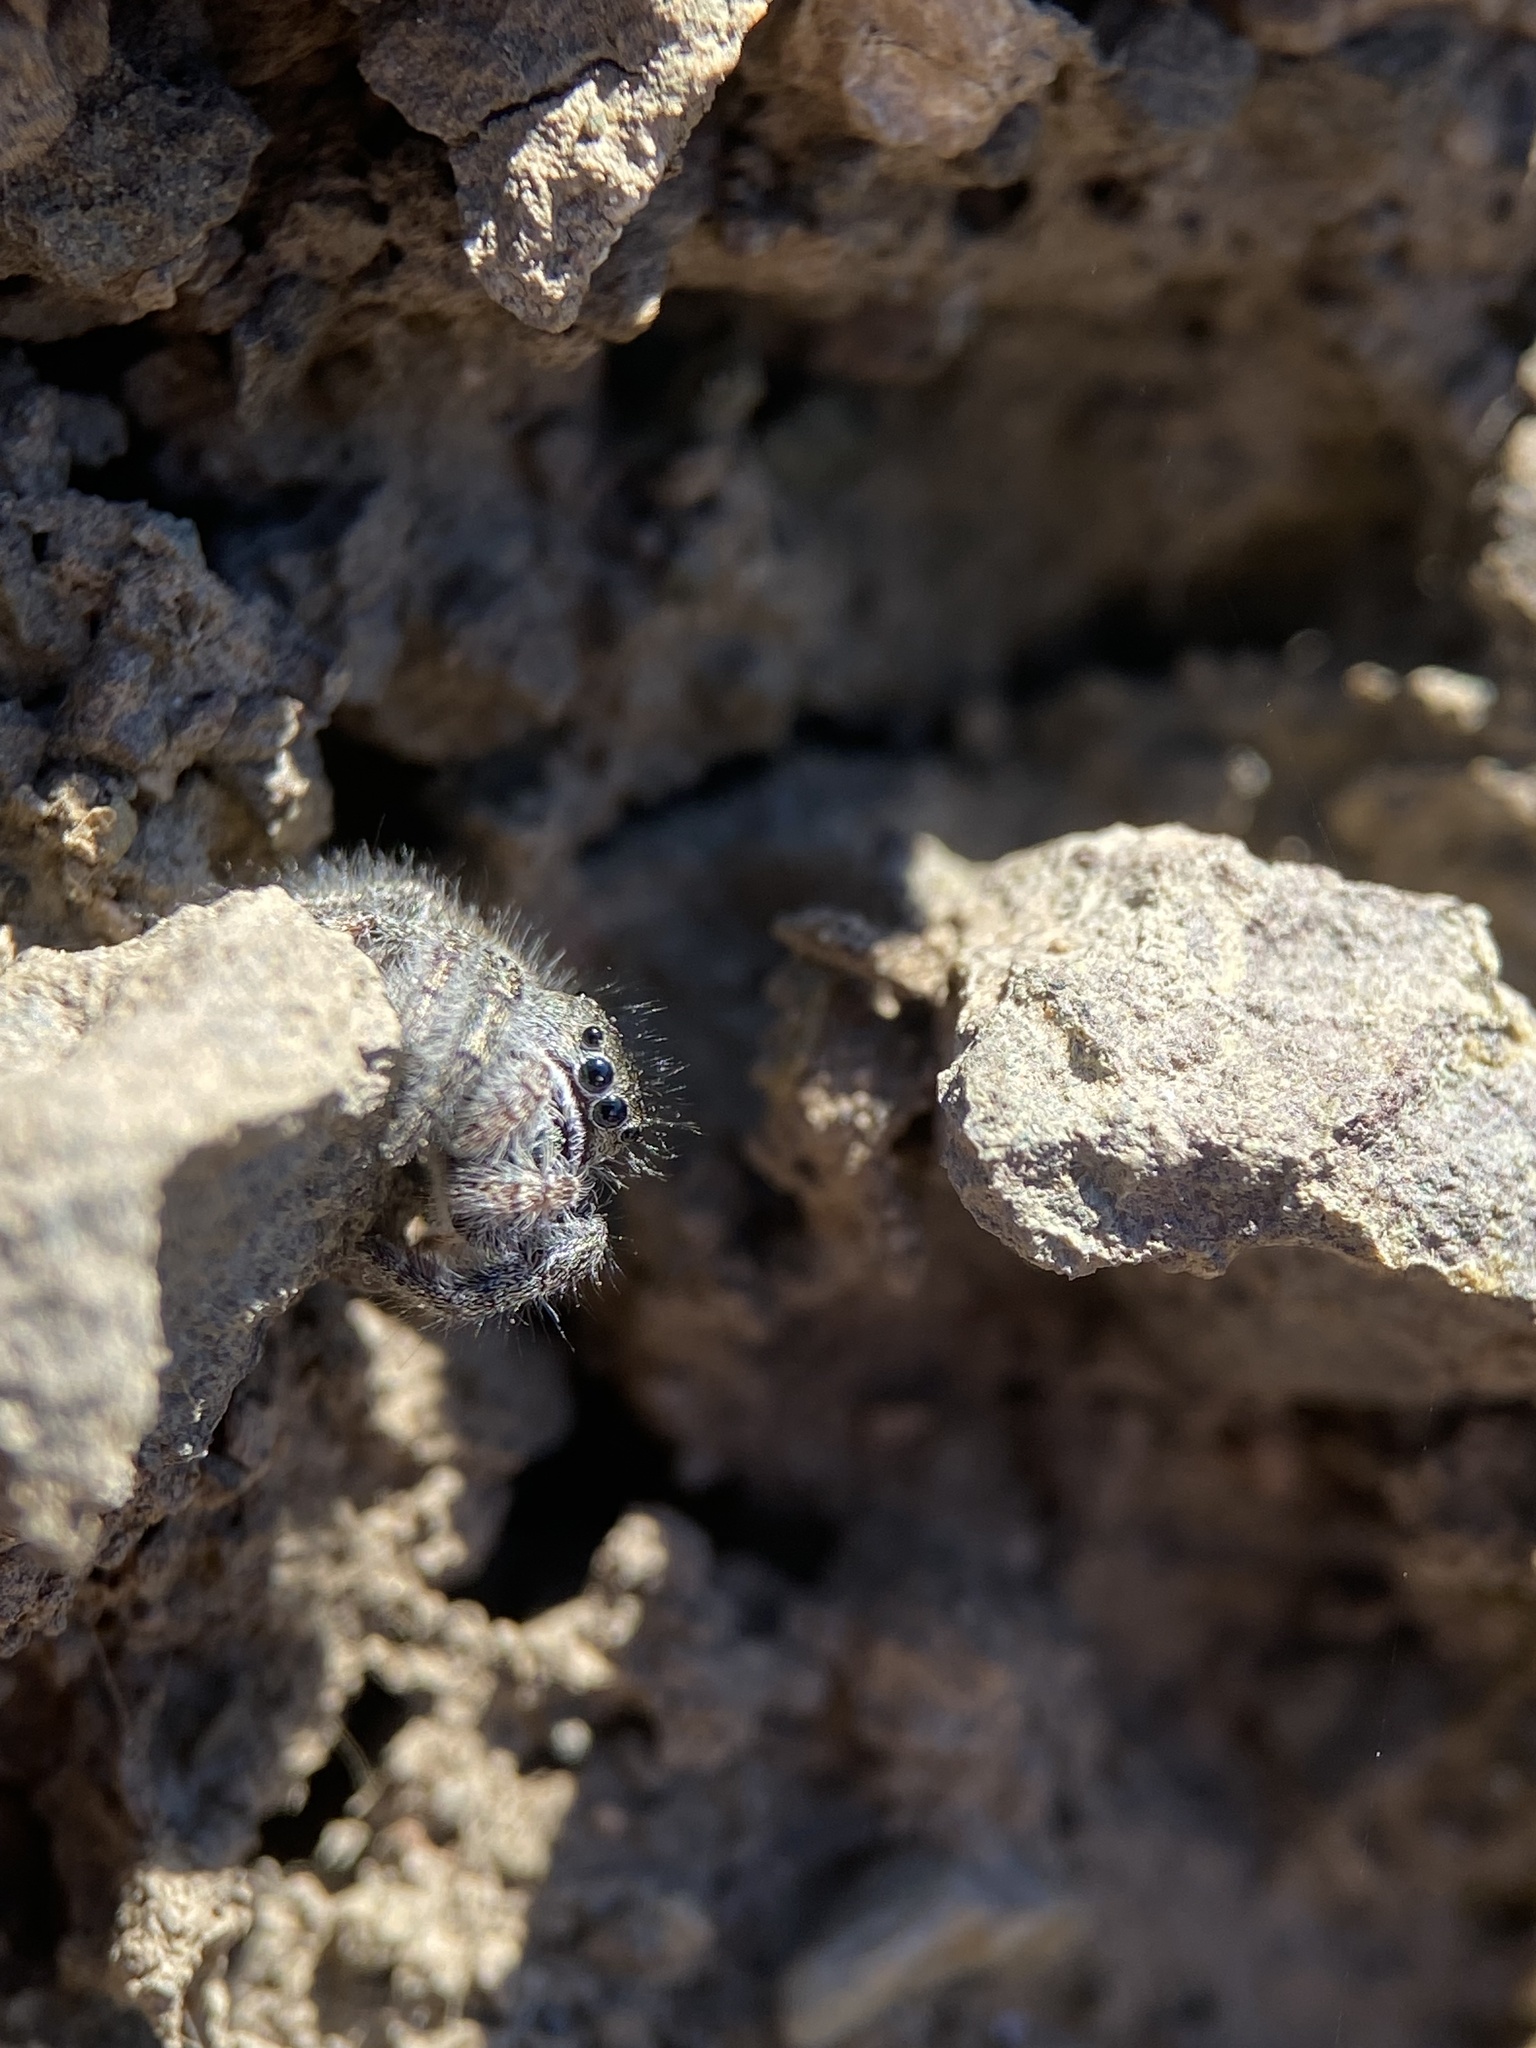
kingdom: Animalia
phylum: Arthropoda
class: Arachnida
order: Araneae
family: Salticidae
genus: Phidippus
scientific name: Phidippus johnsoni
